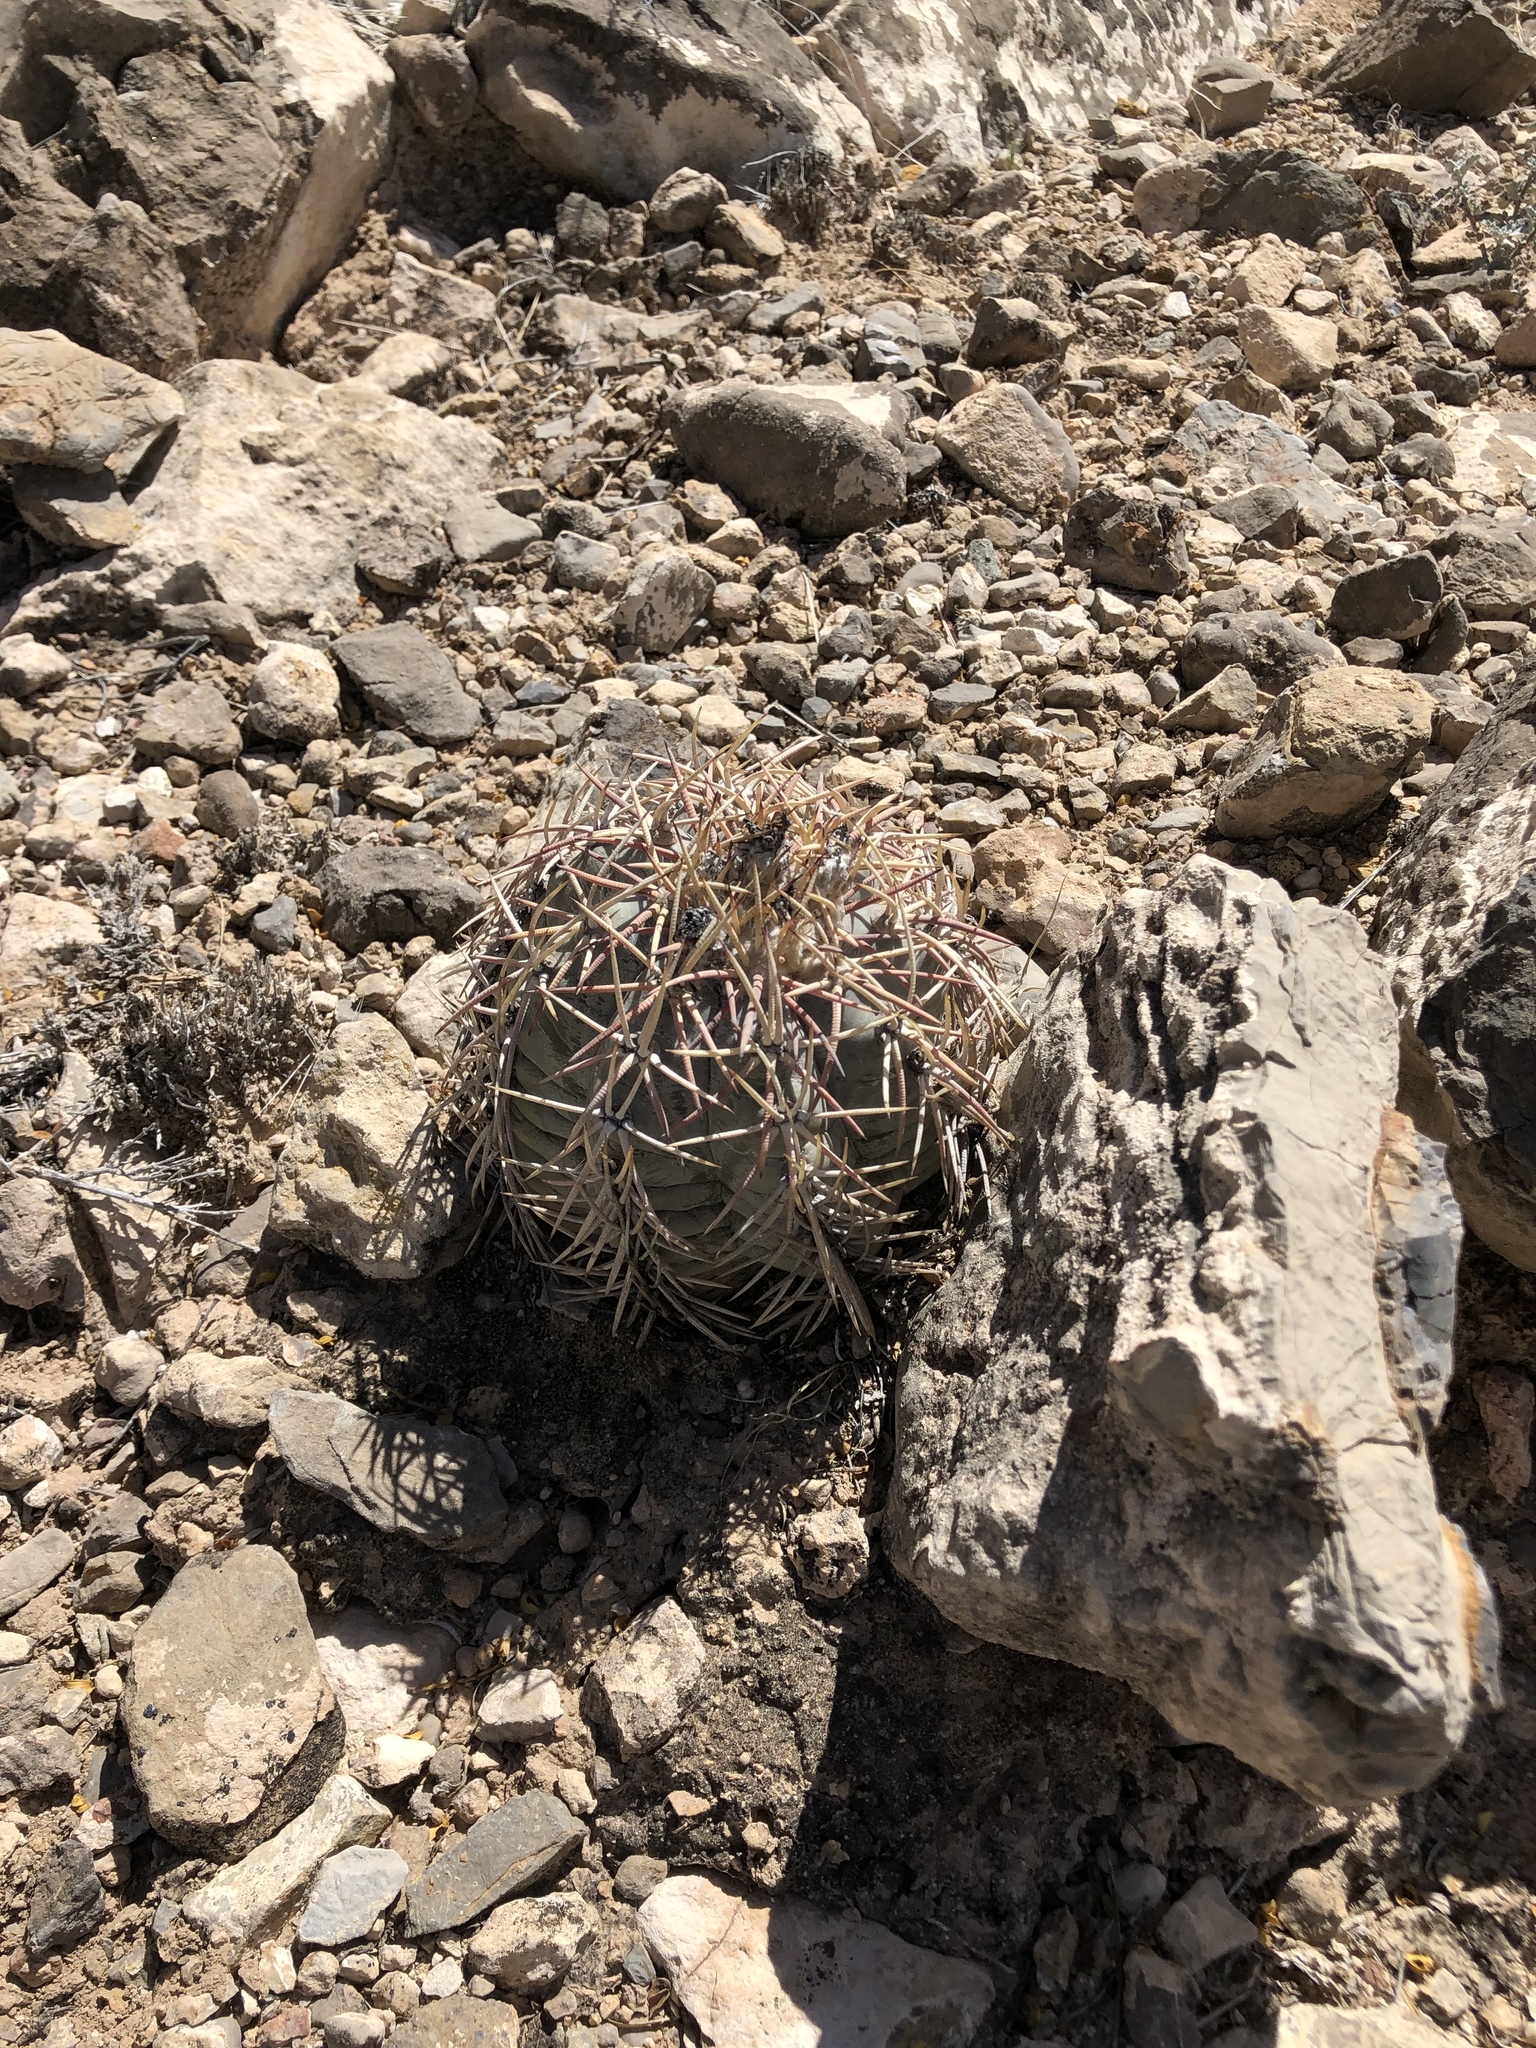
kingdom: Plantae
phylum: Tracheophyta
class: Magnoliopsida
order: Caryophyllales
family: Cactaceae
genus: Echinocactus
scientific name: Echinocactus horizonthalonius
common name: Devilshead
